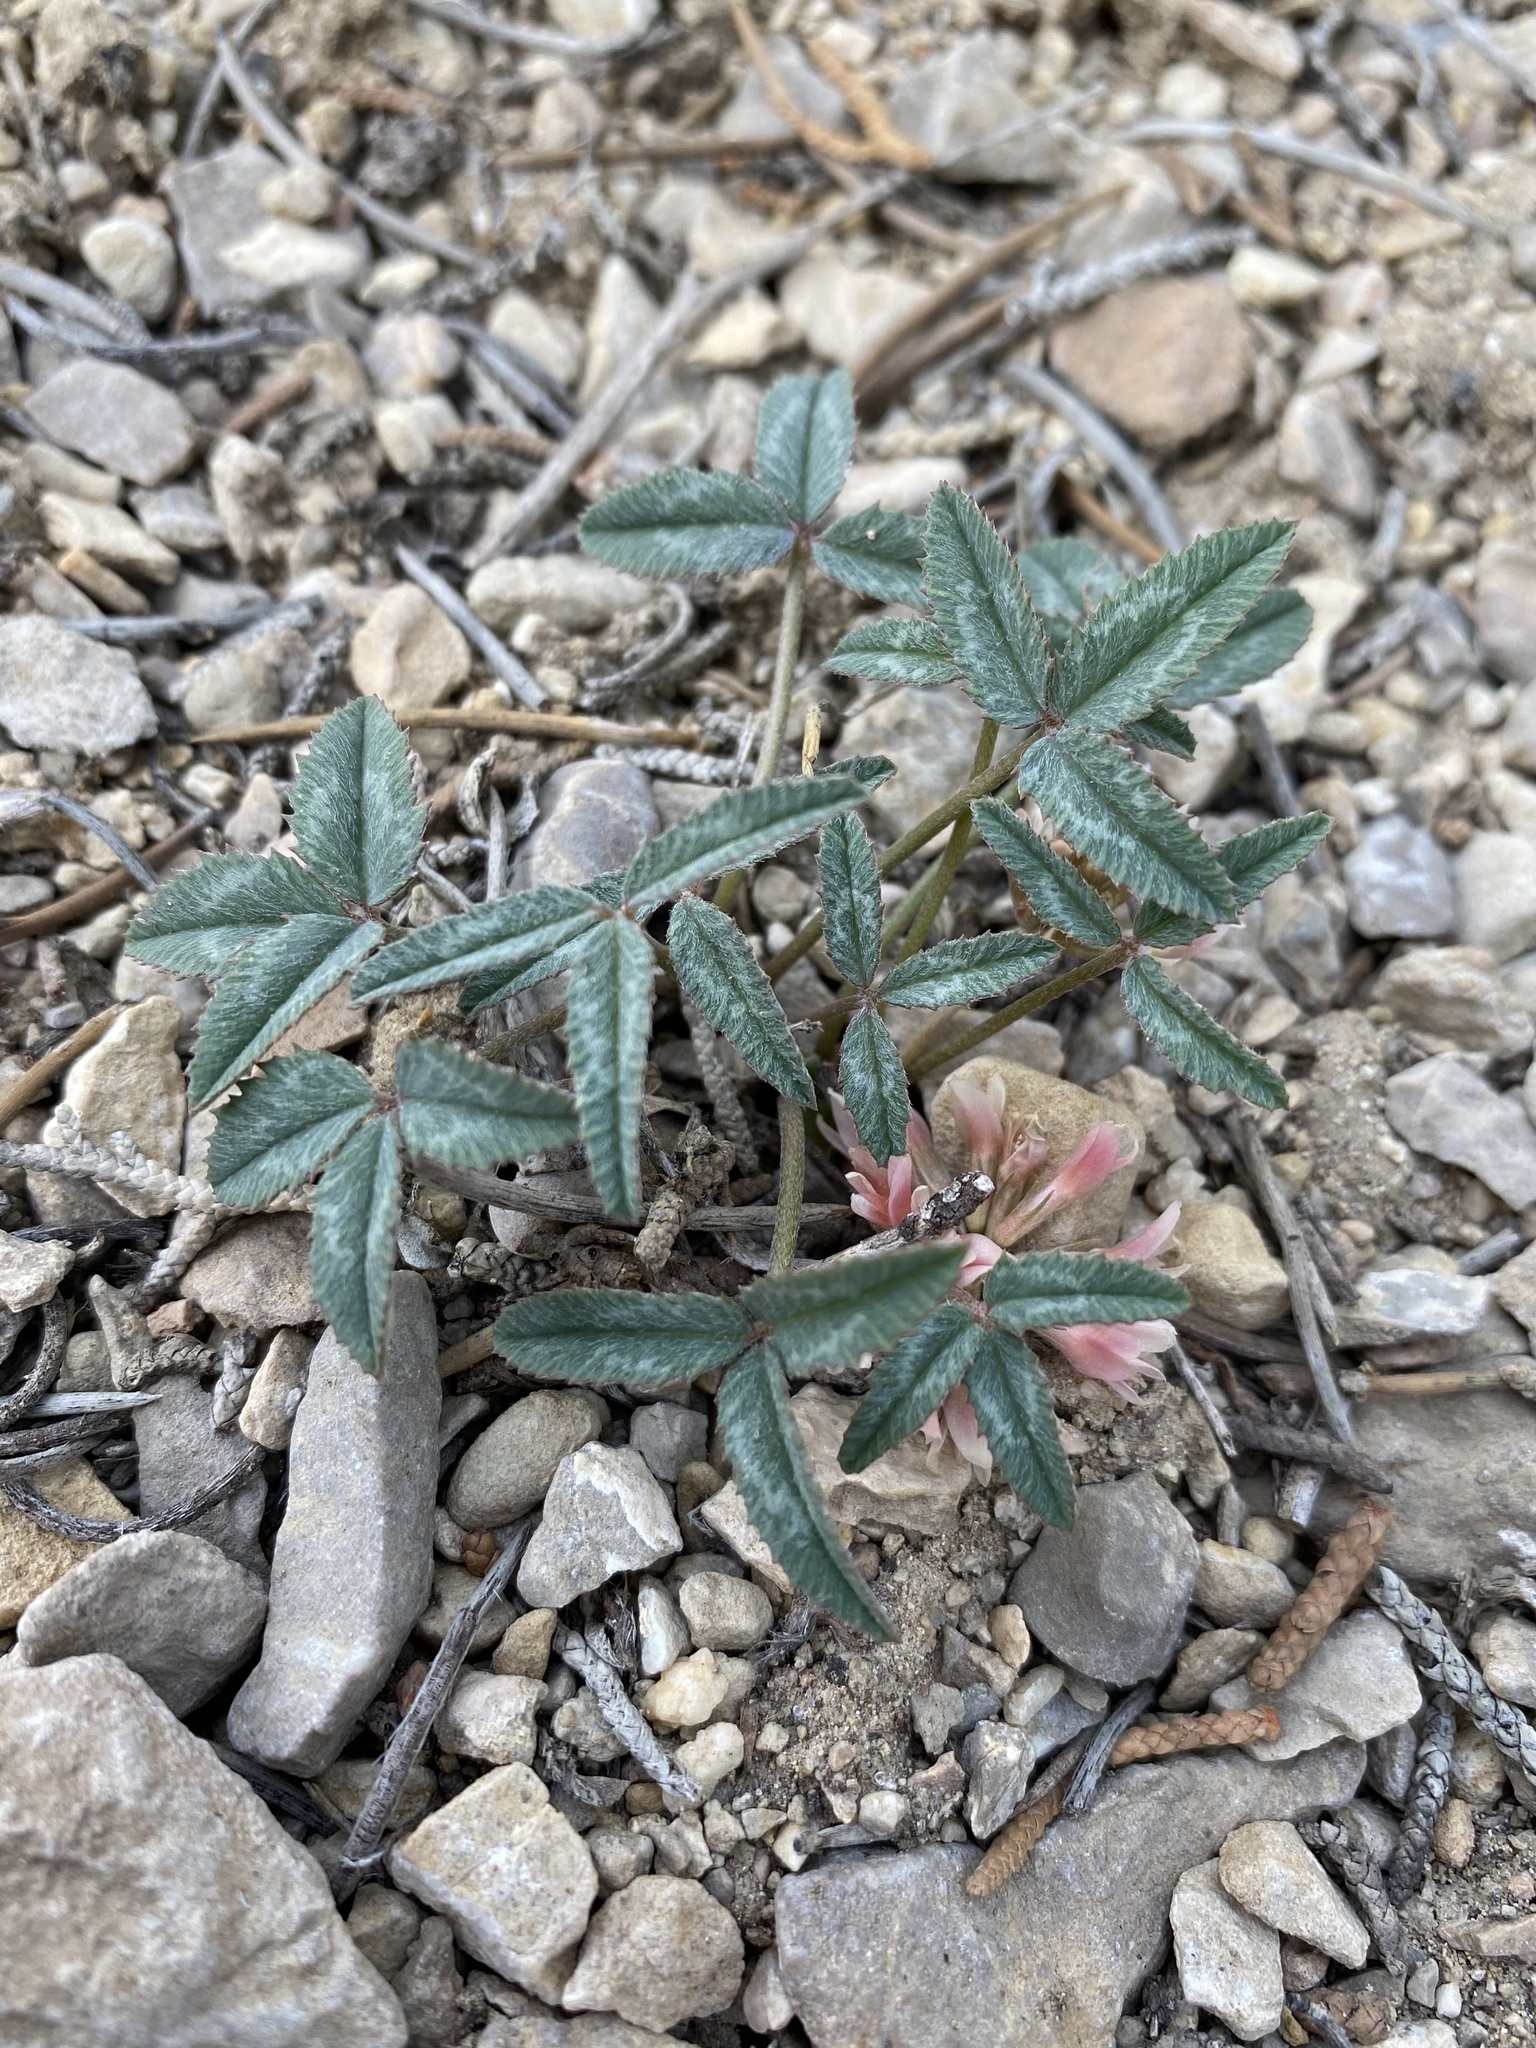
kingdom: Plantae
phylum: Tracheophyta
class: Magnoliopsida
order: Fabales
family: Fabaceae
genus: Trifolium
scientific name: Trifolium gymnocarpon
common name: Tufted clover
